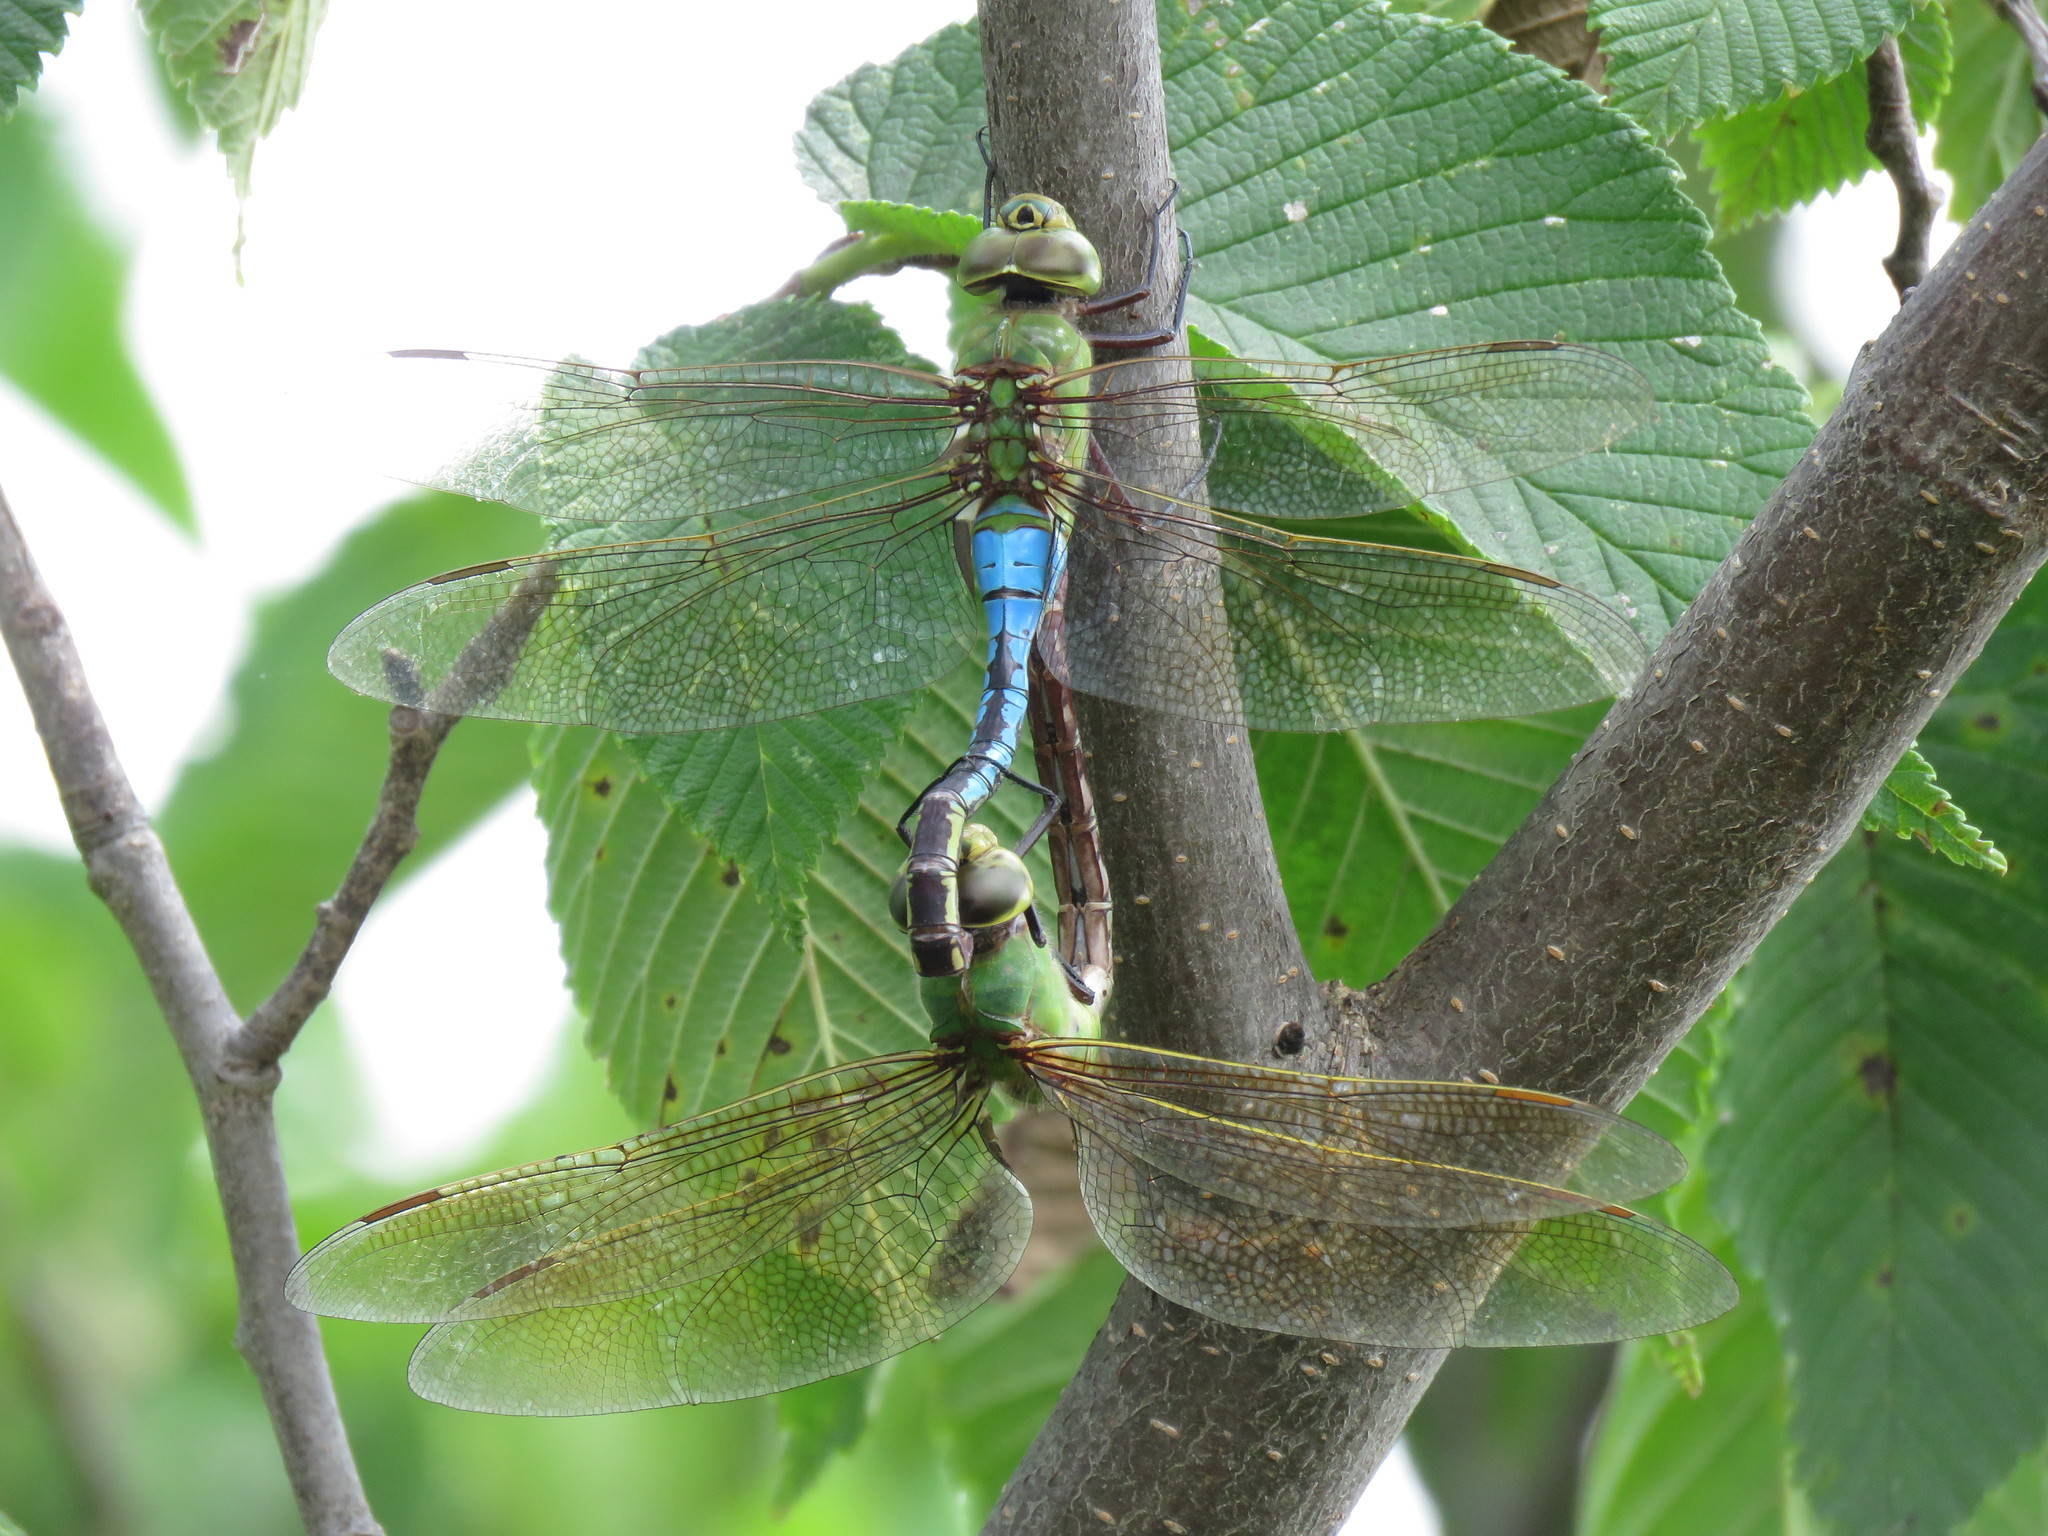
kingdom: Animalia
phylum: Arthropoda
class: Insecta
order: Odonata
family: Aeshnidae
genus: Anax
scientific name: Anax junius
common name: Common green darner
